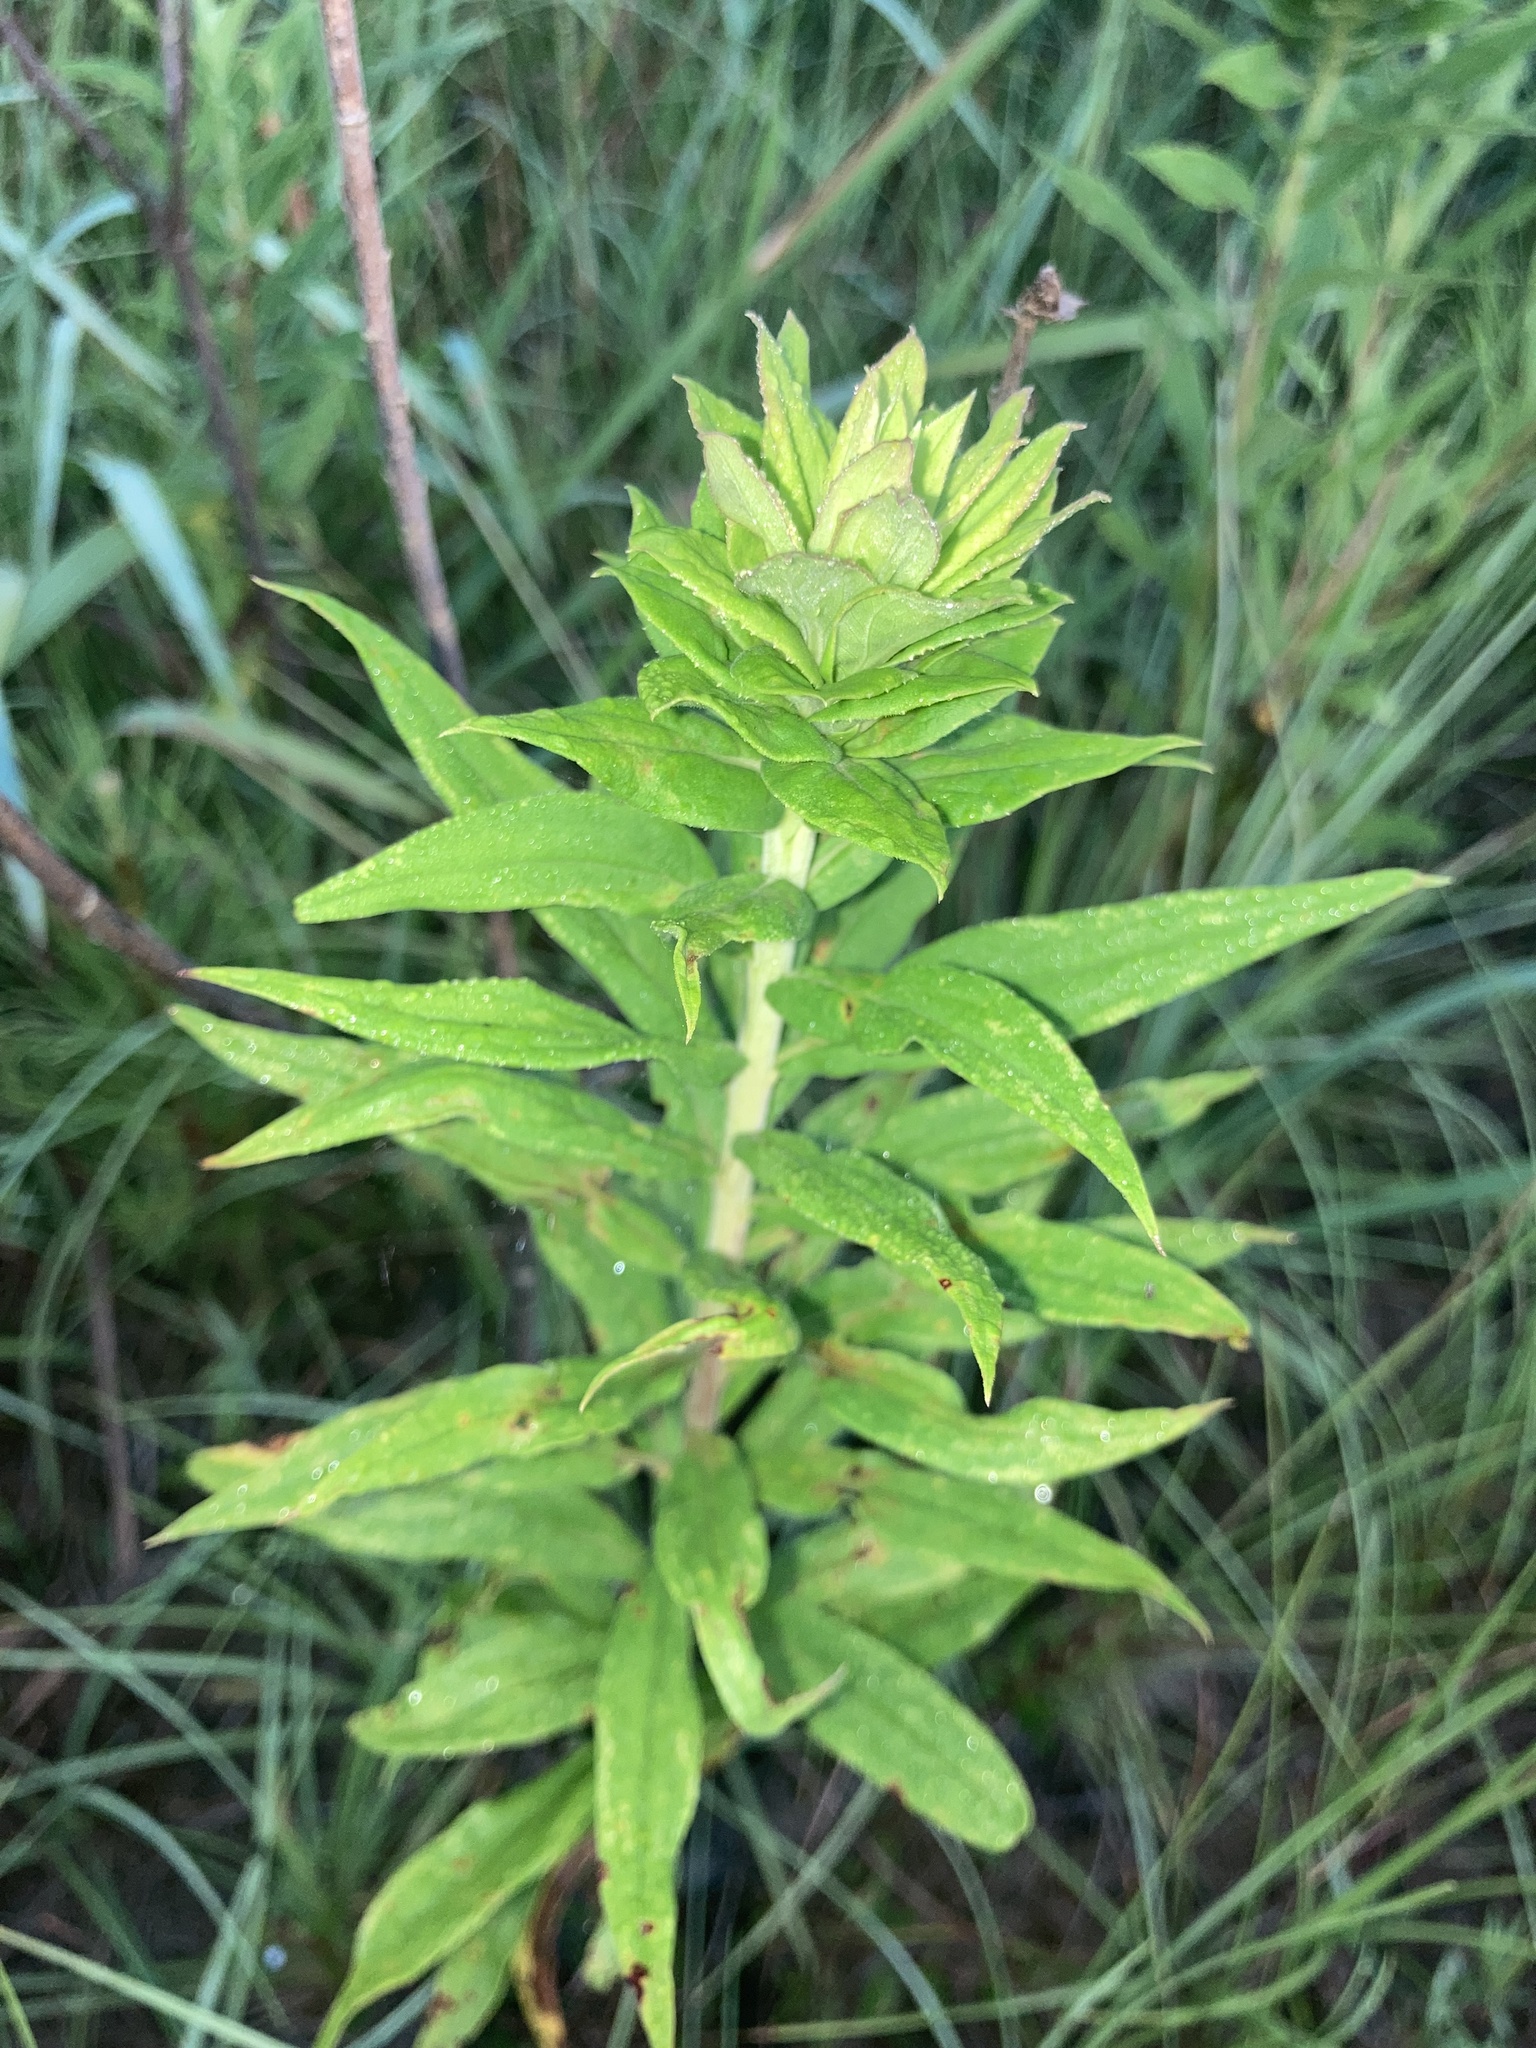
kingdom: Plantae
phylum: Tracheophyta
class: Magnoliopsida
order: Asterales
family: Asteraceae
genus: Solidago
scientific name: Solidago altissima
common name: Late goldenrod
